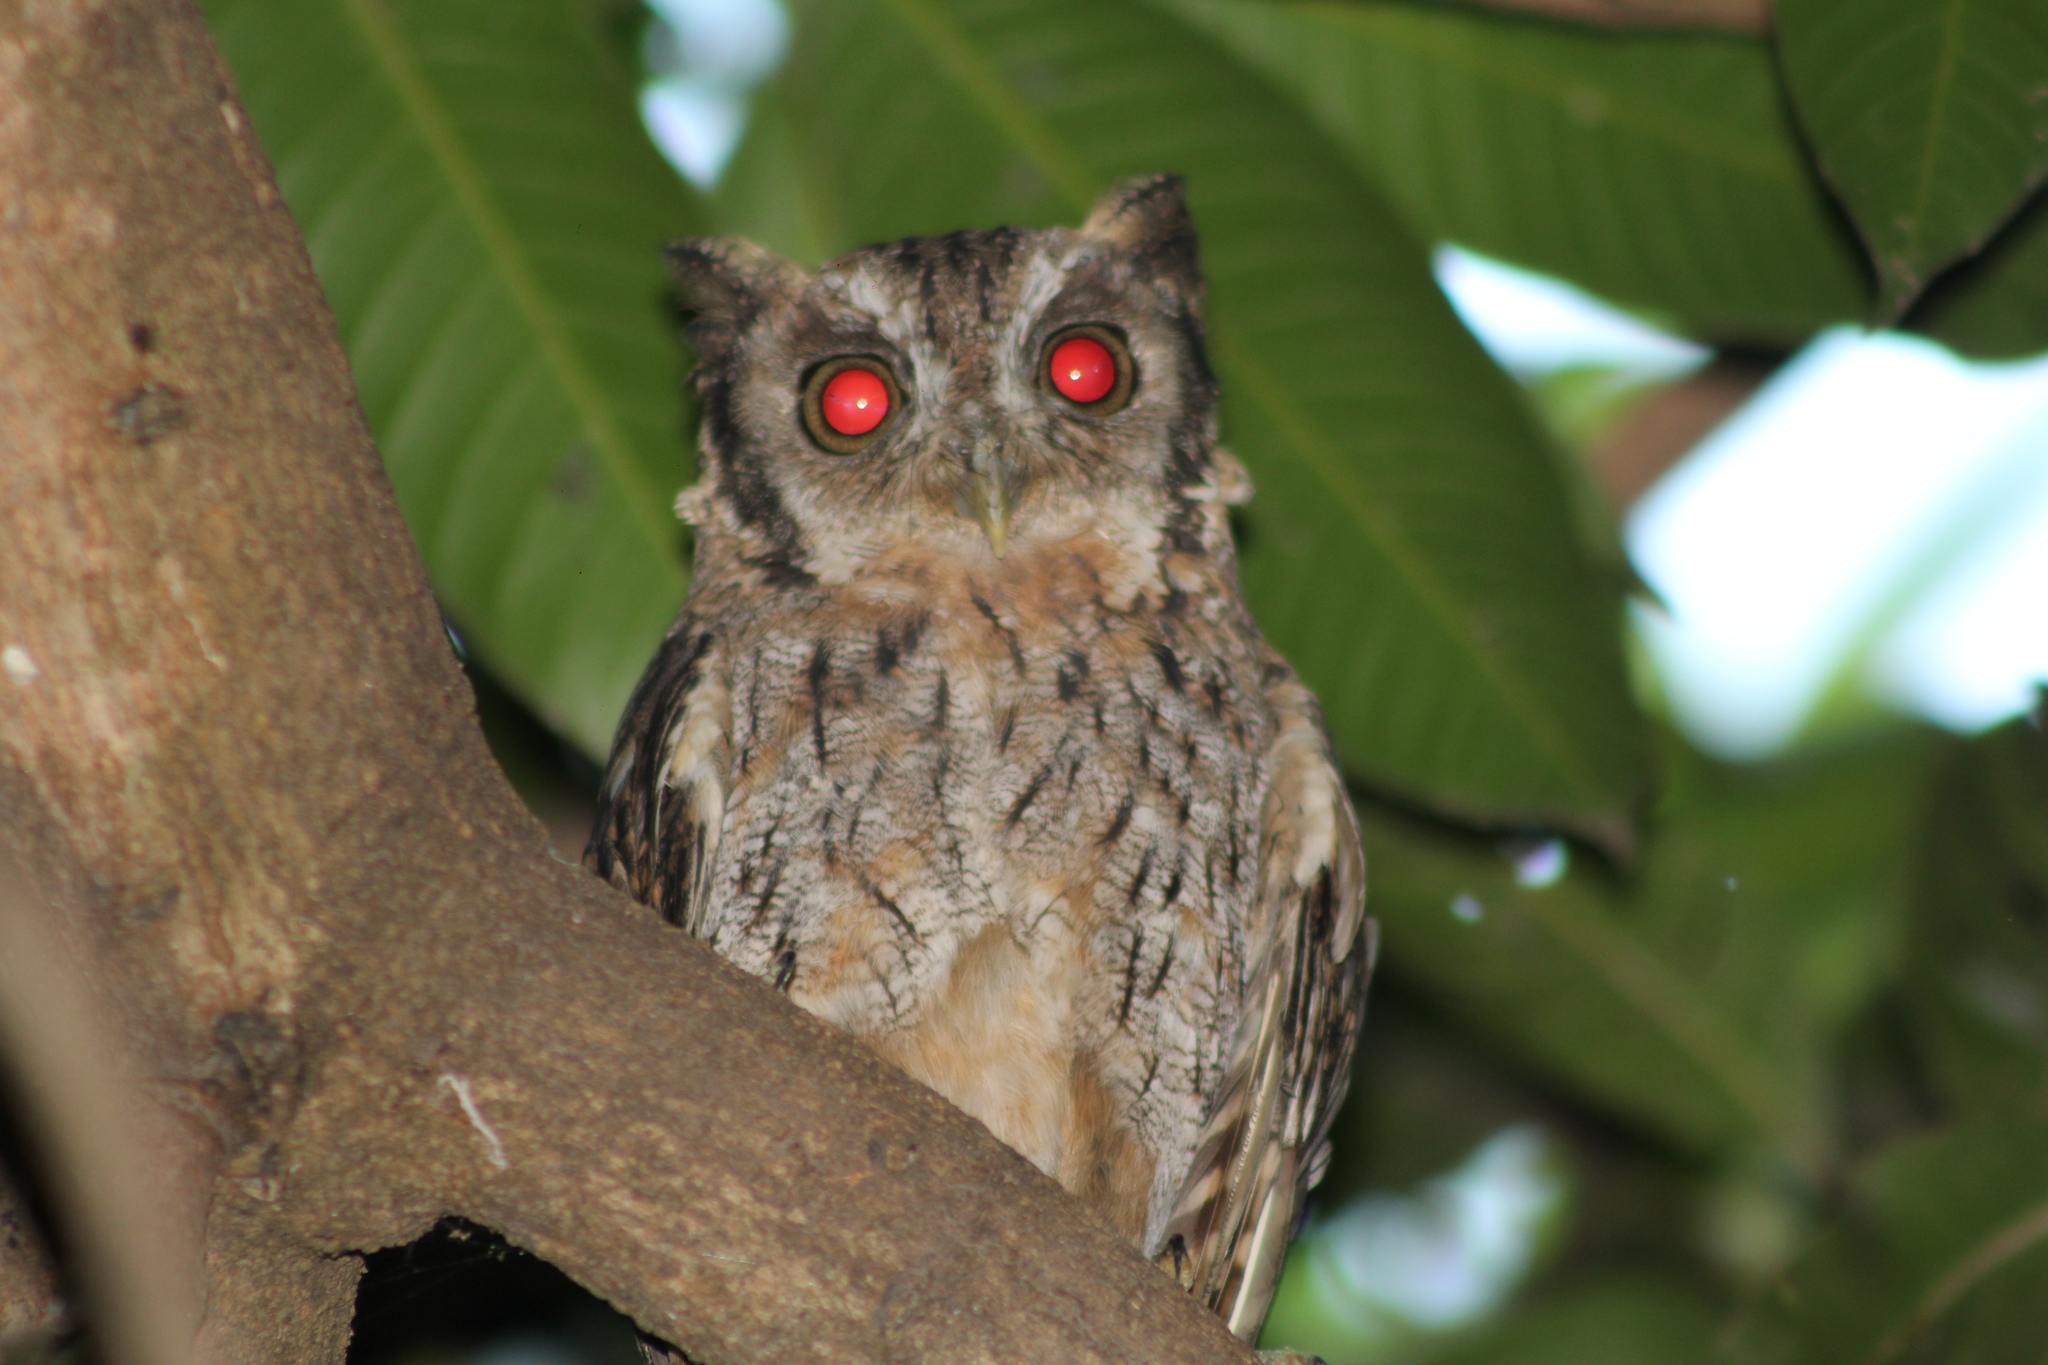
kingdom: Animalia
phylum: Chordata
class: Aves
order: Strigiformes
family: Strigidae
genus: Megascops
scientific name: Megascops choliba
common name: Tropical screech-owl
